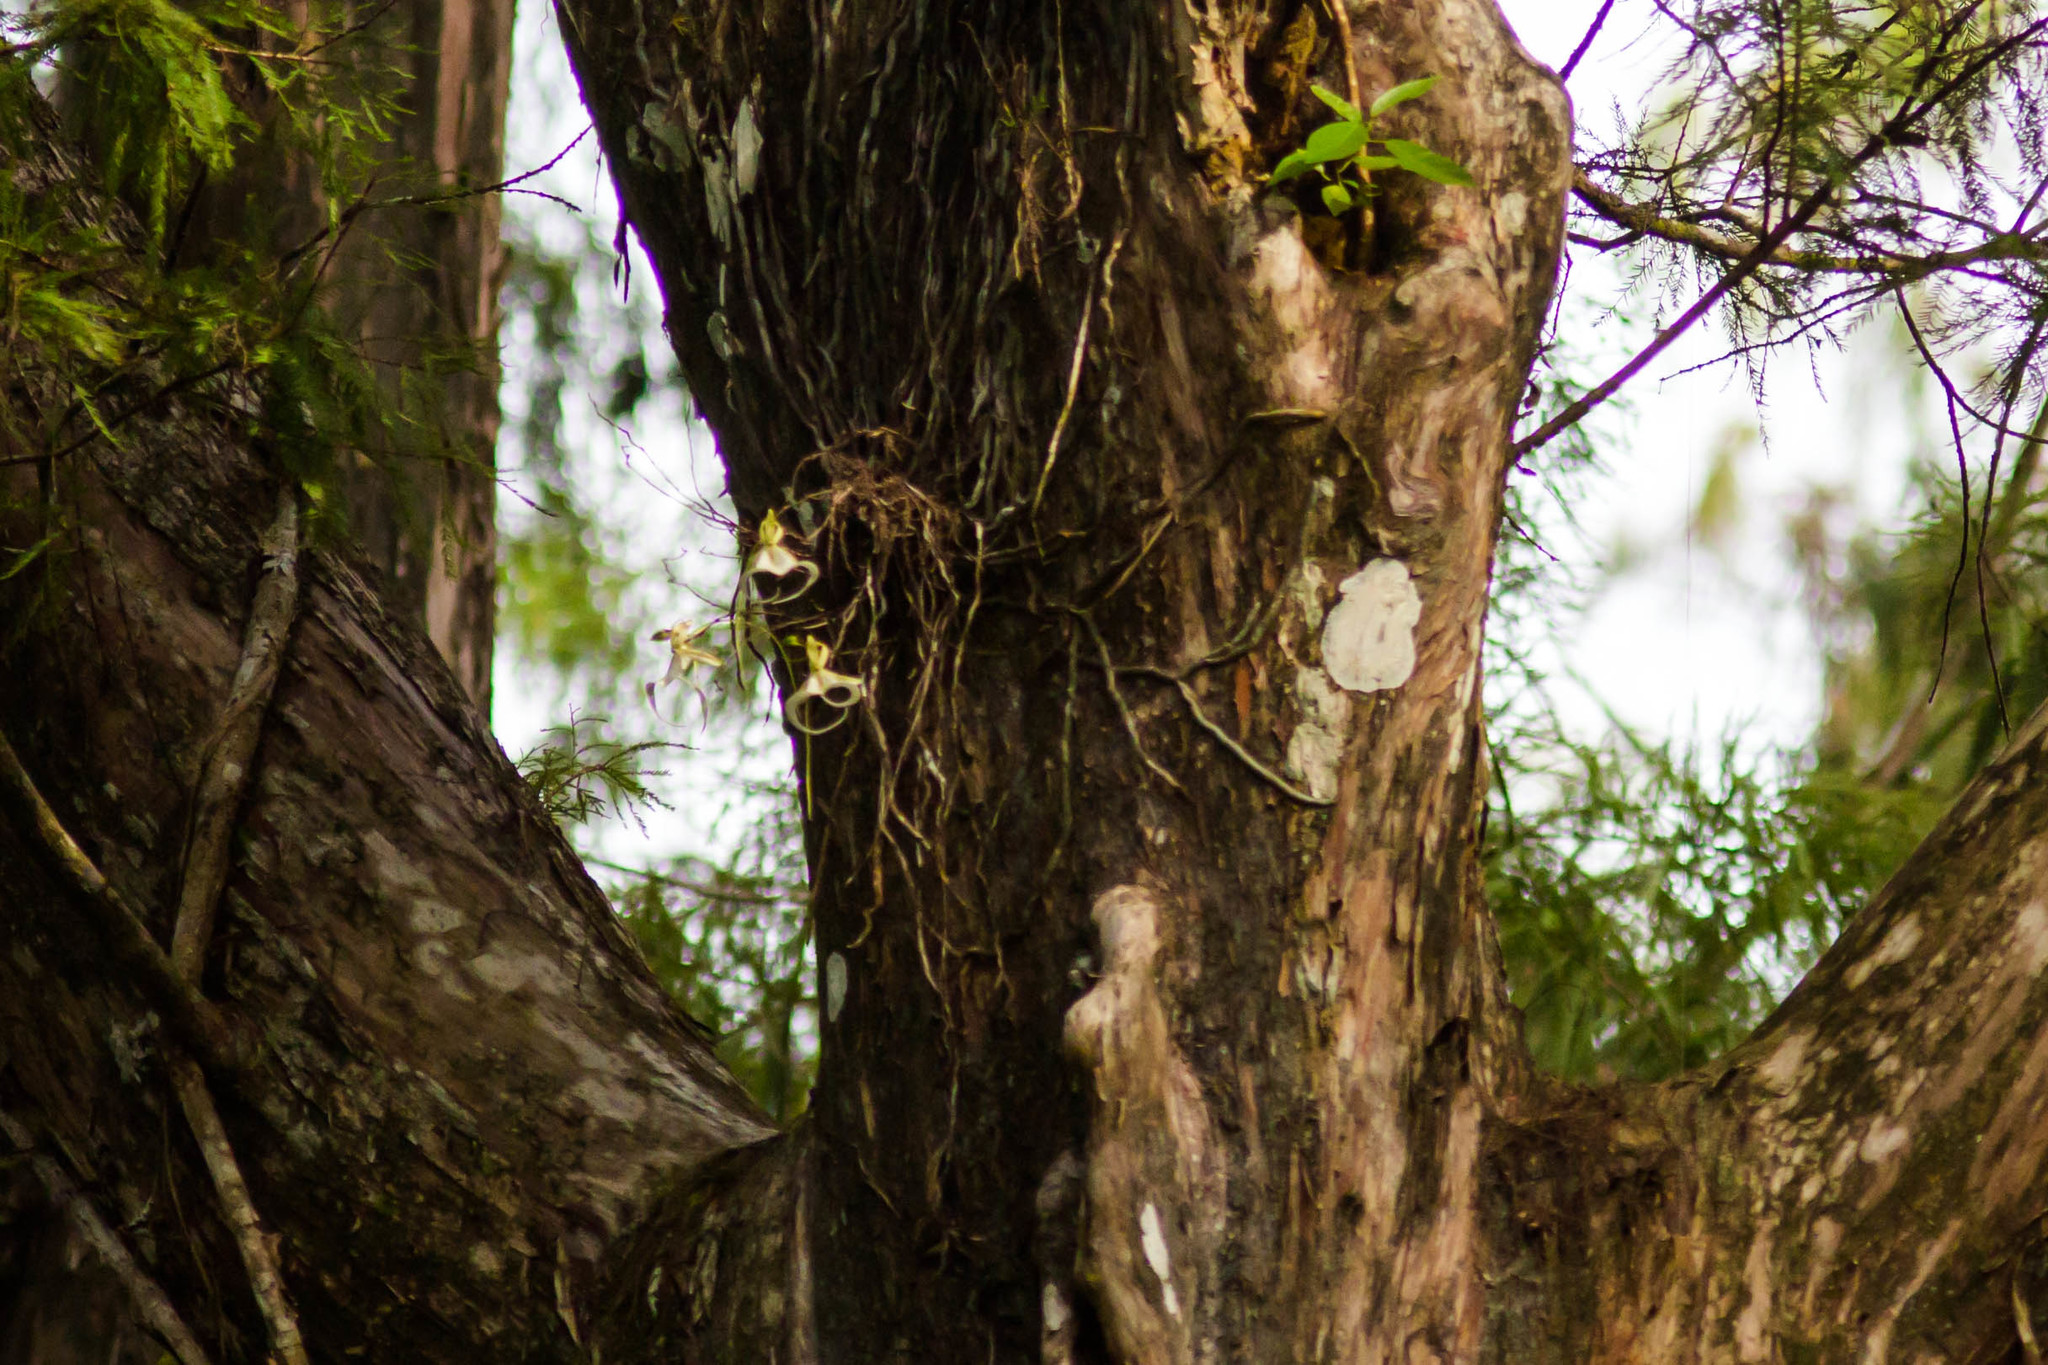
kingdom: Plantae
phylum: Tracheophyta
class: Liliopsida
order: Asparagales
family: Orchidaceae
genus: Dendrophylax
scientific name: Dendrophylax lindenii
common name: Palmpolly
